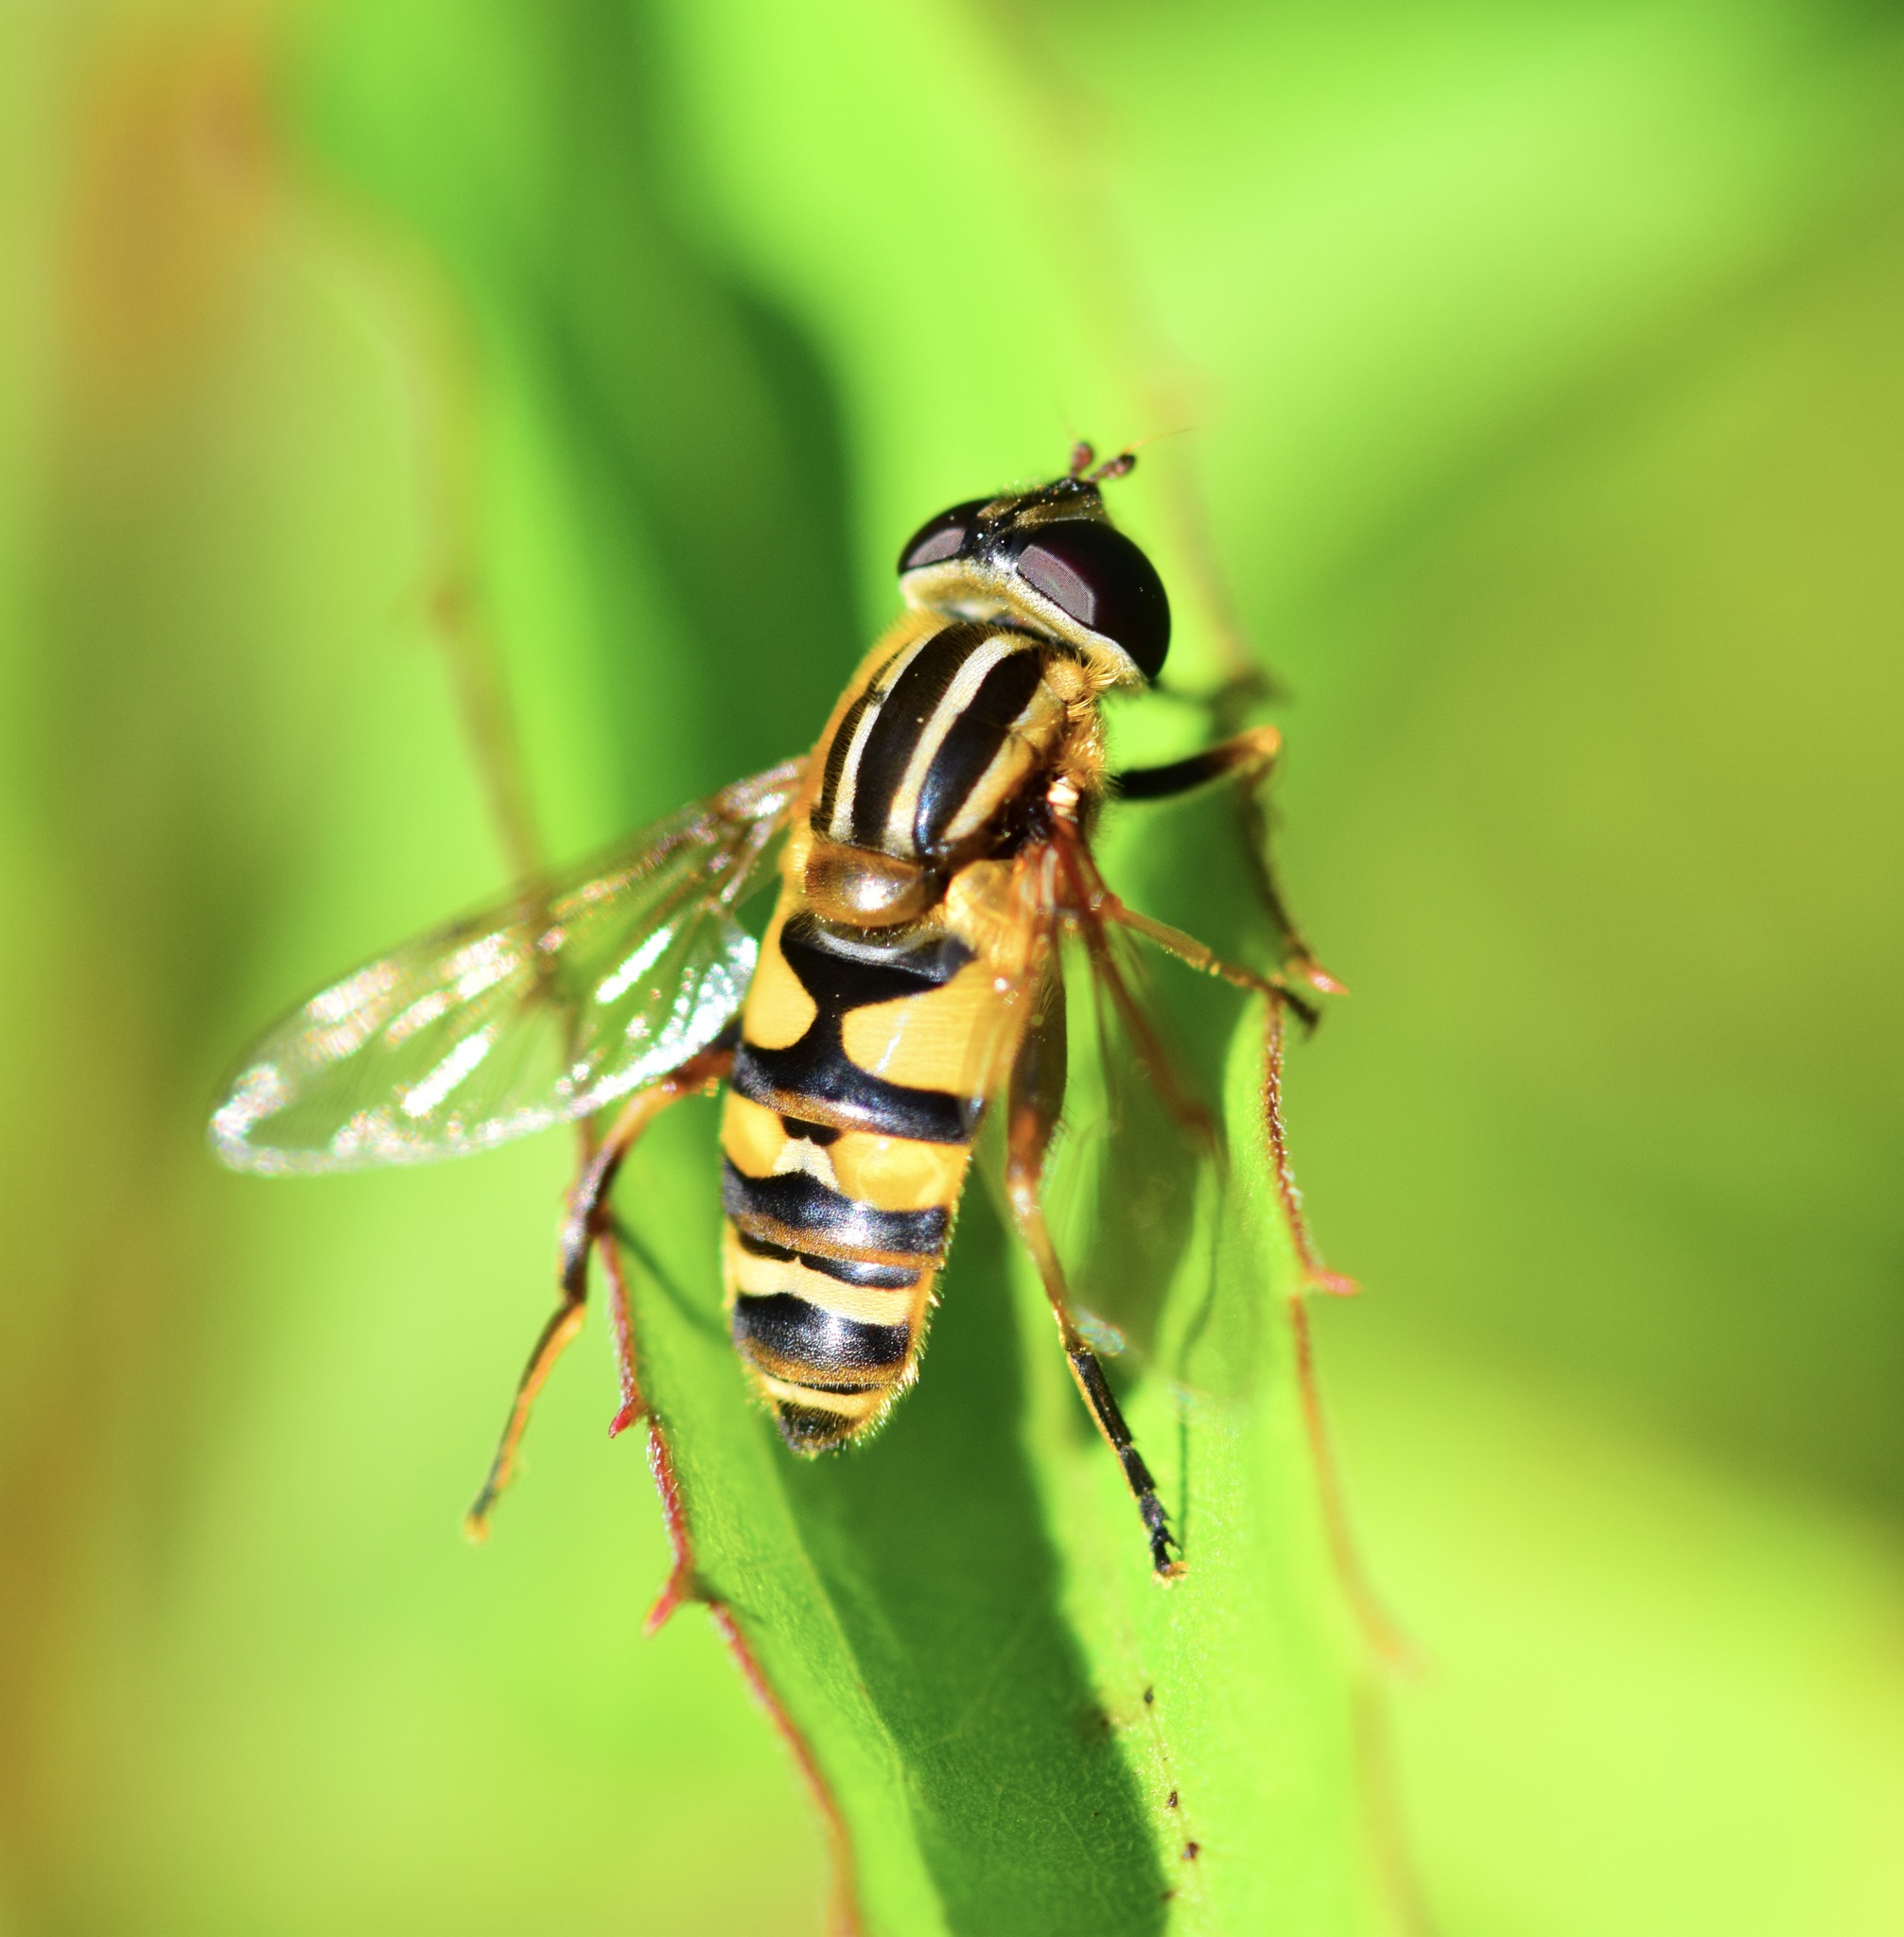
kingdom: Animalia
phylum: Arthropoda
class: Insecta
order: Diptera
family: Syrphidae
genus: Helophilus
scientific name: Helophilus fasciatus
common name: Narrow-headed marsh fly
